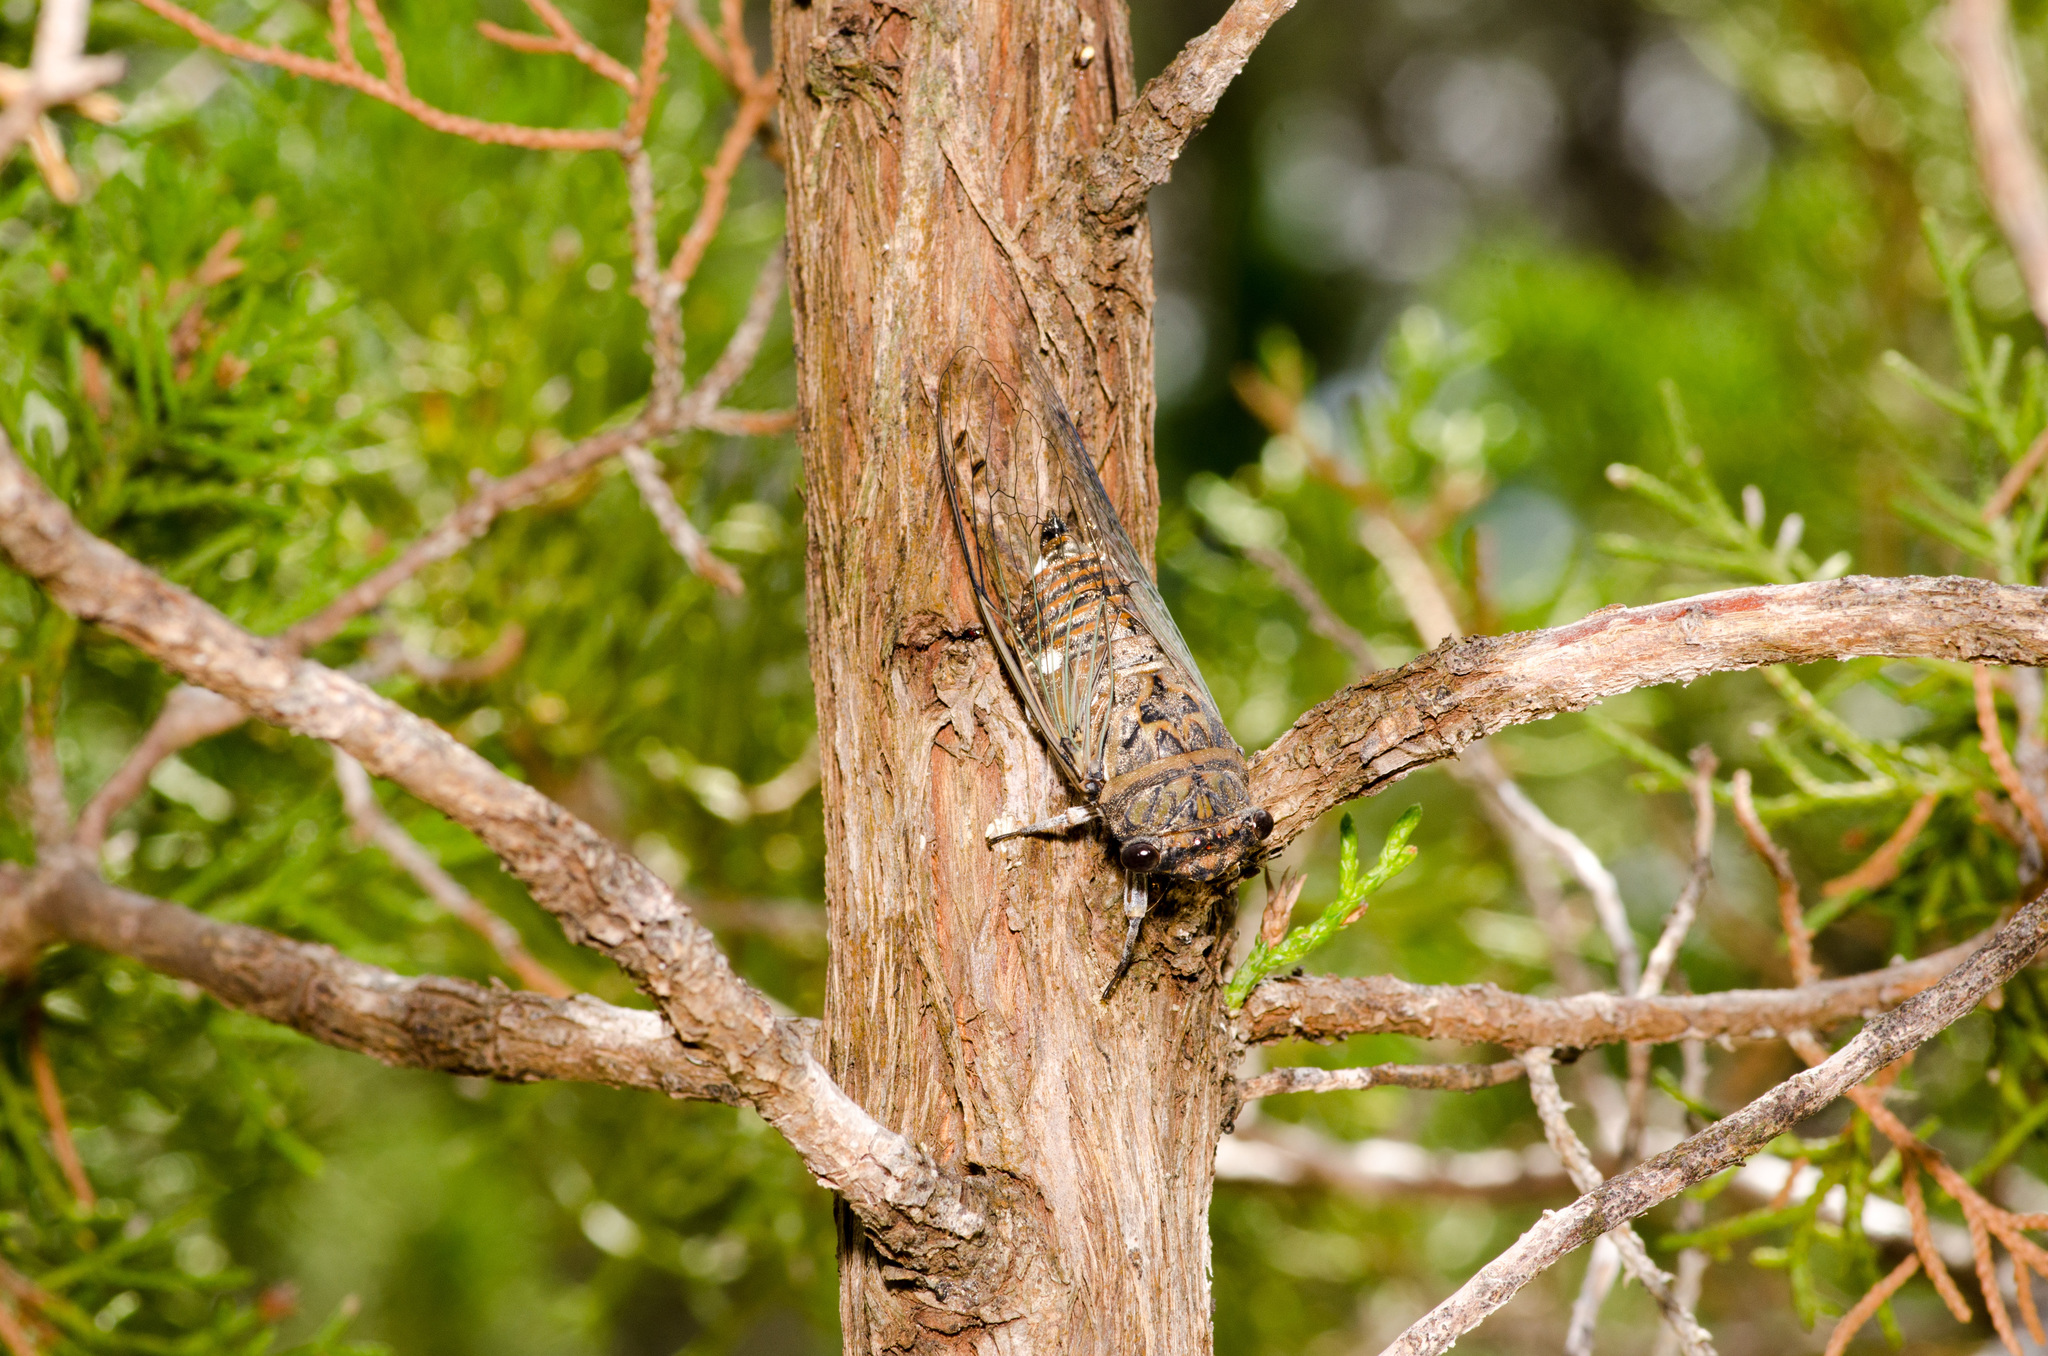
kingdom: Animalia
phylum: Arthropoda
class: Insecta
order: Hemiptera
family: Cicadidae
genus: Hadoa
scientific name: Hadoa texana
